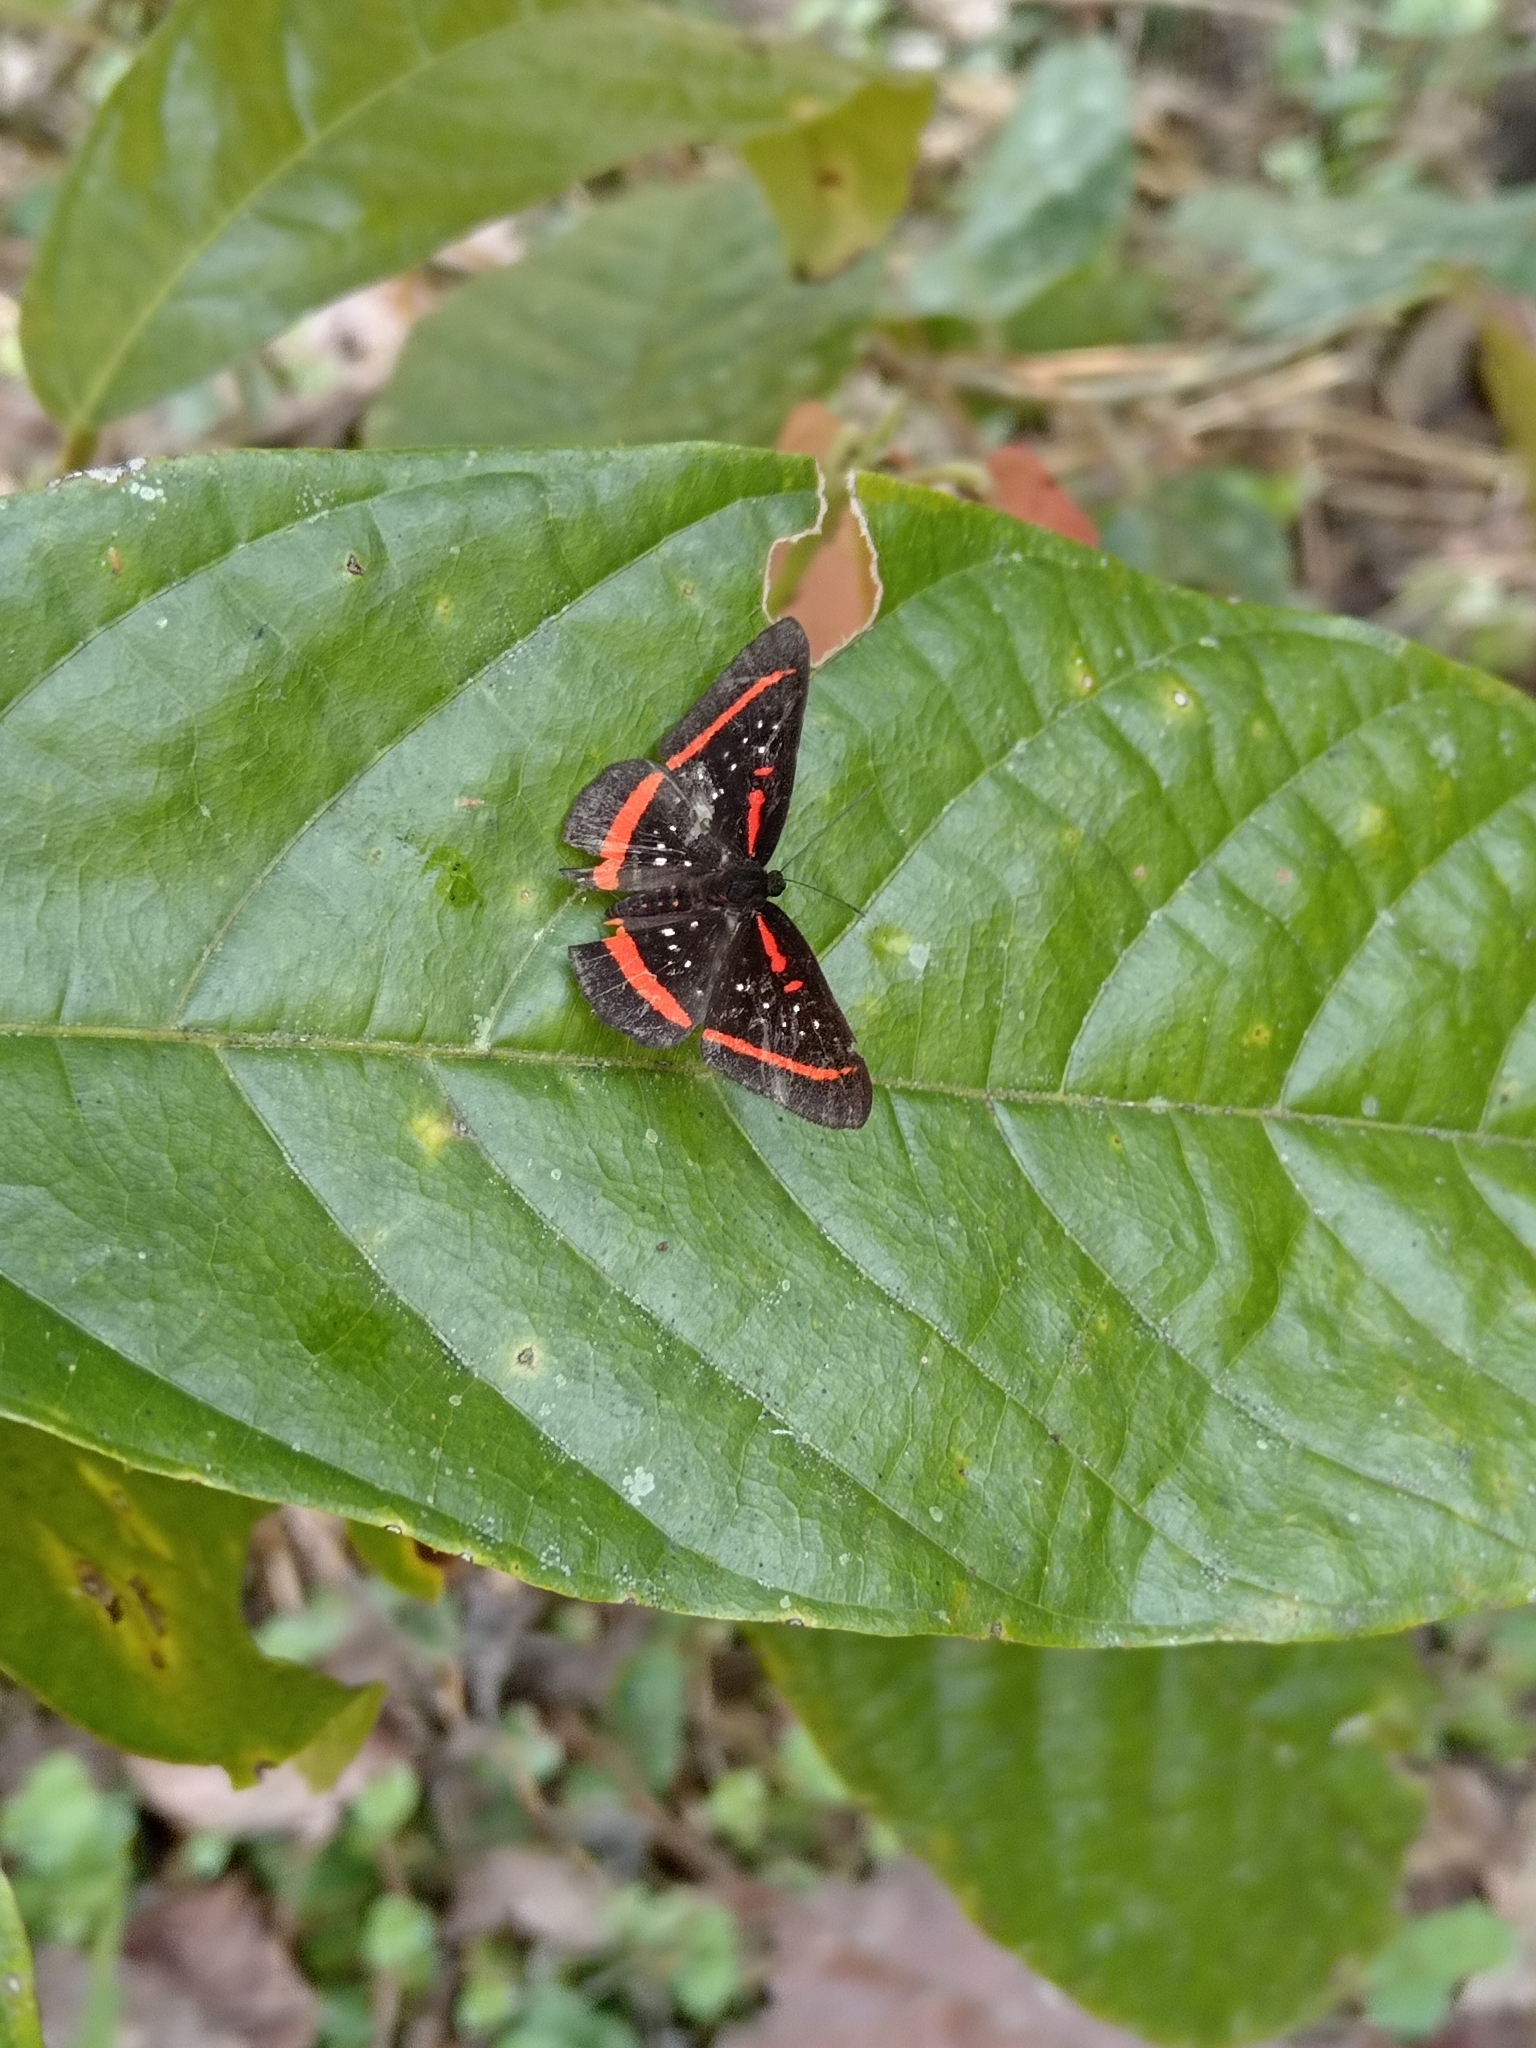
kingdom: Animalia
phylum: Arthropoda
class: Insecta
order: Lepidoptera
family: Riodinidae
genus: Amarynthis
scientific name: Amarynthis meneria
